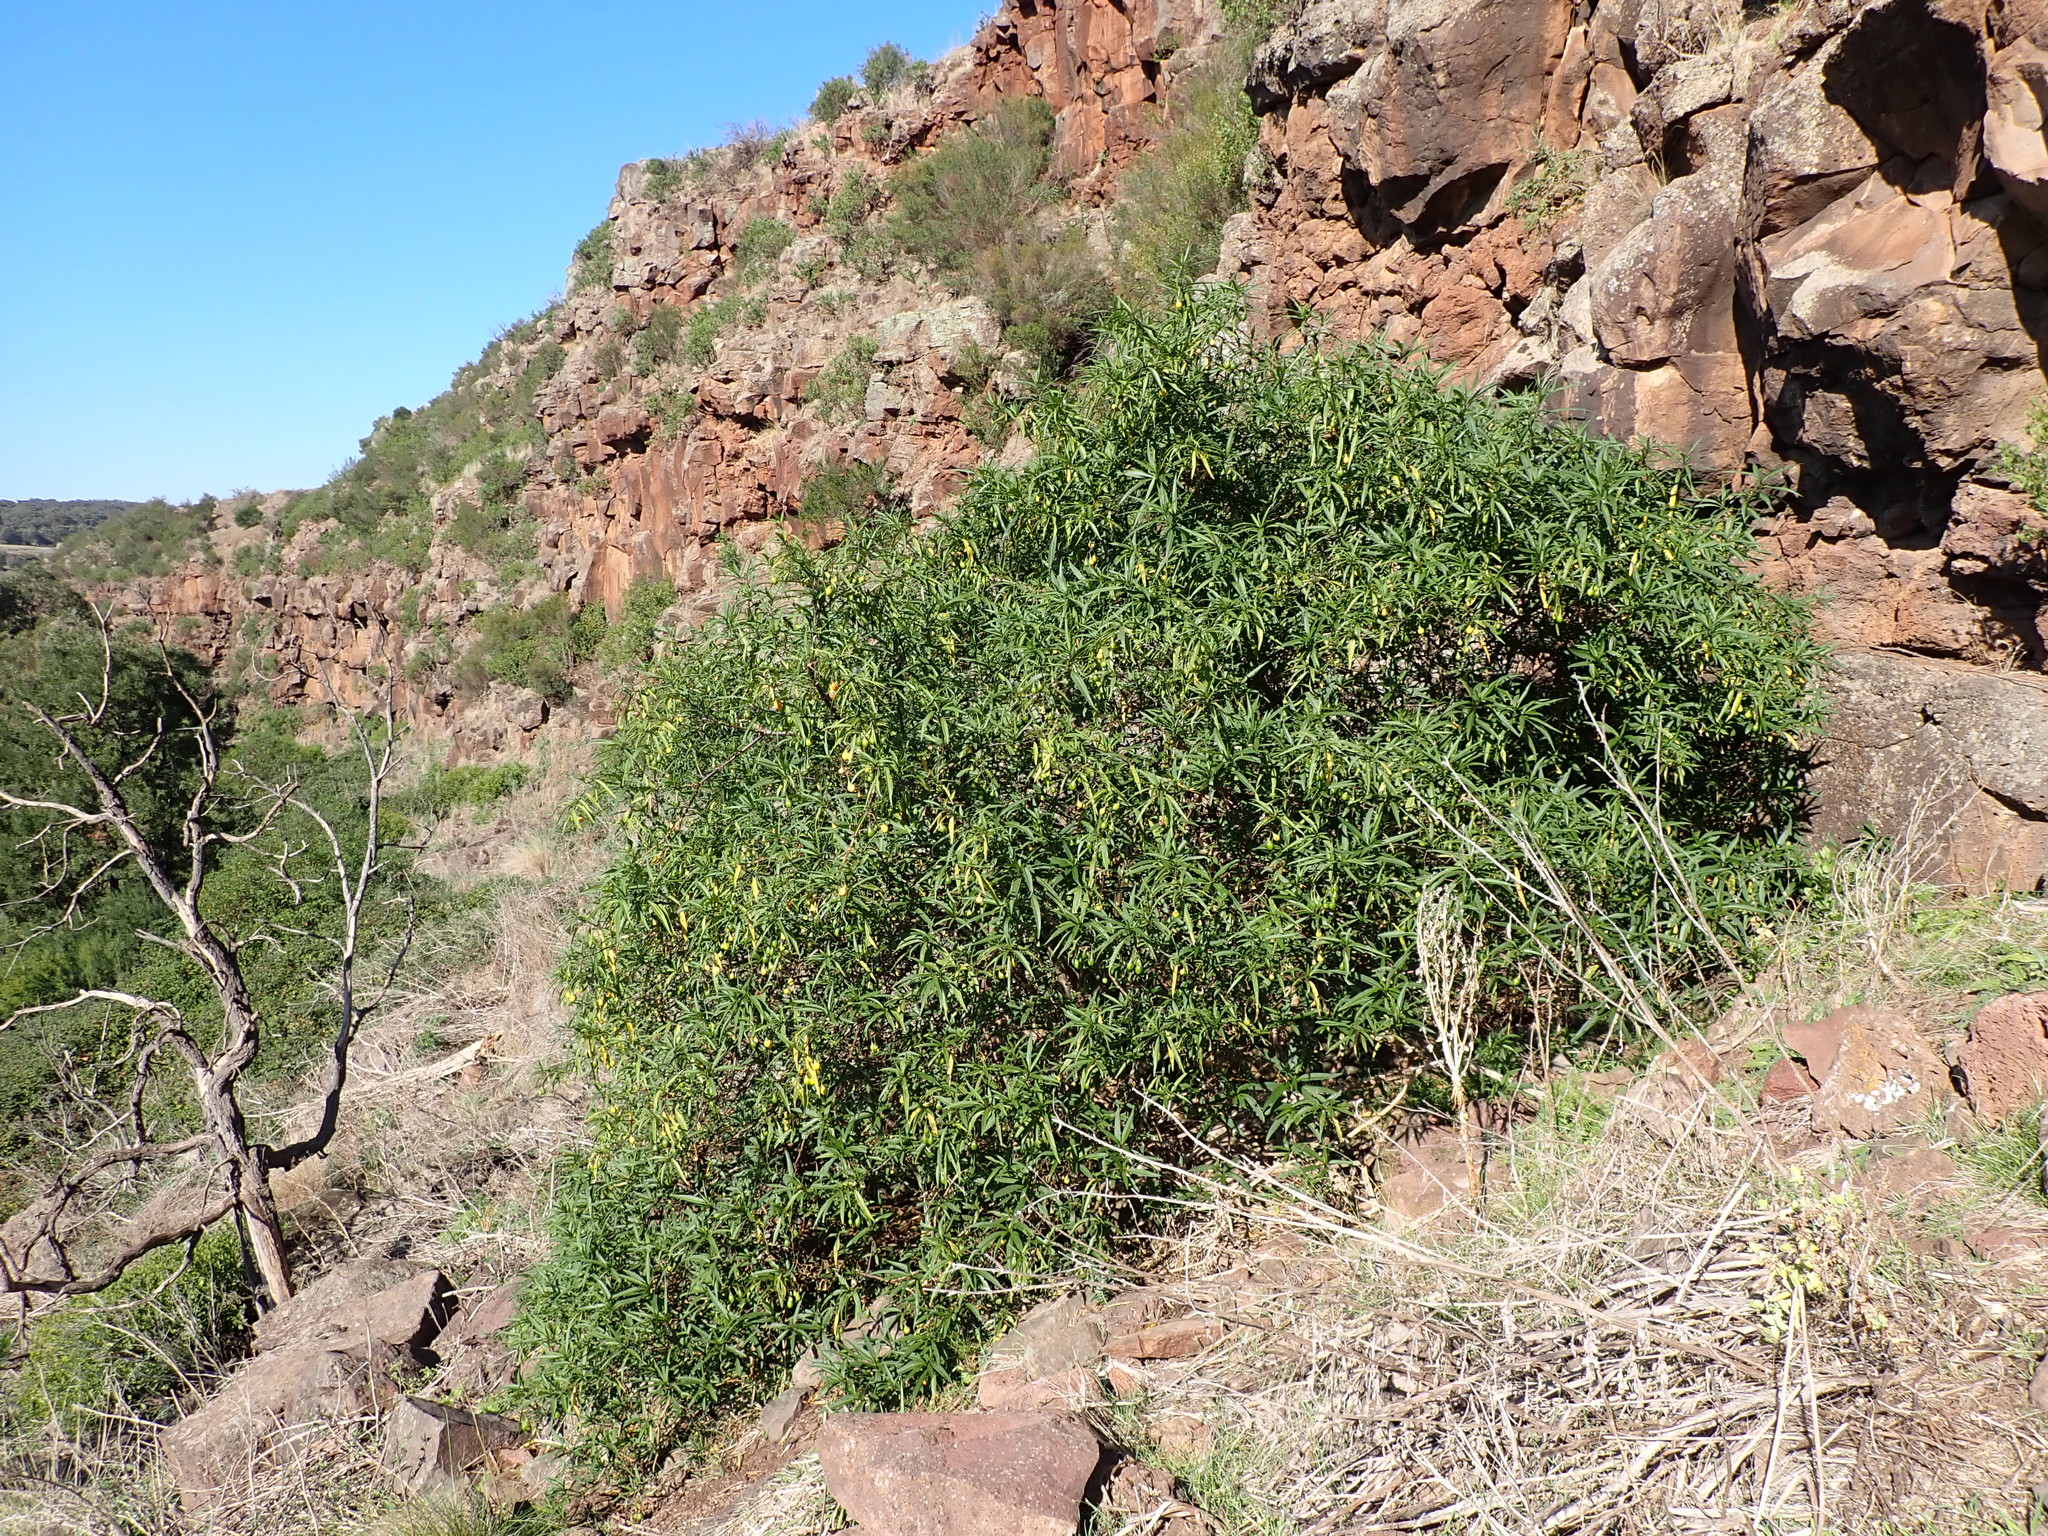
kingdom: Plantae
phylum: Tracheophyta
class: Magnoliopsida
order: Solanales
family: Solanaceae
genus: Solanum
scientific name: Solanum laciniatum
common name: Kangaroo-apple
